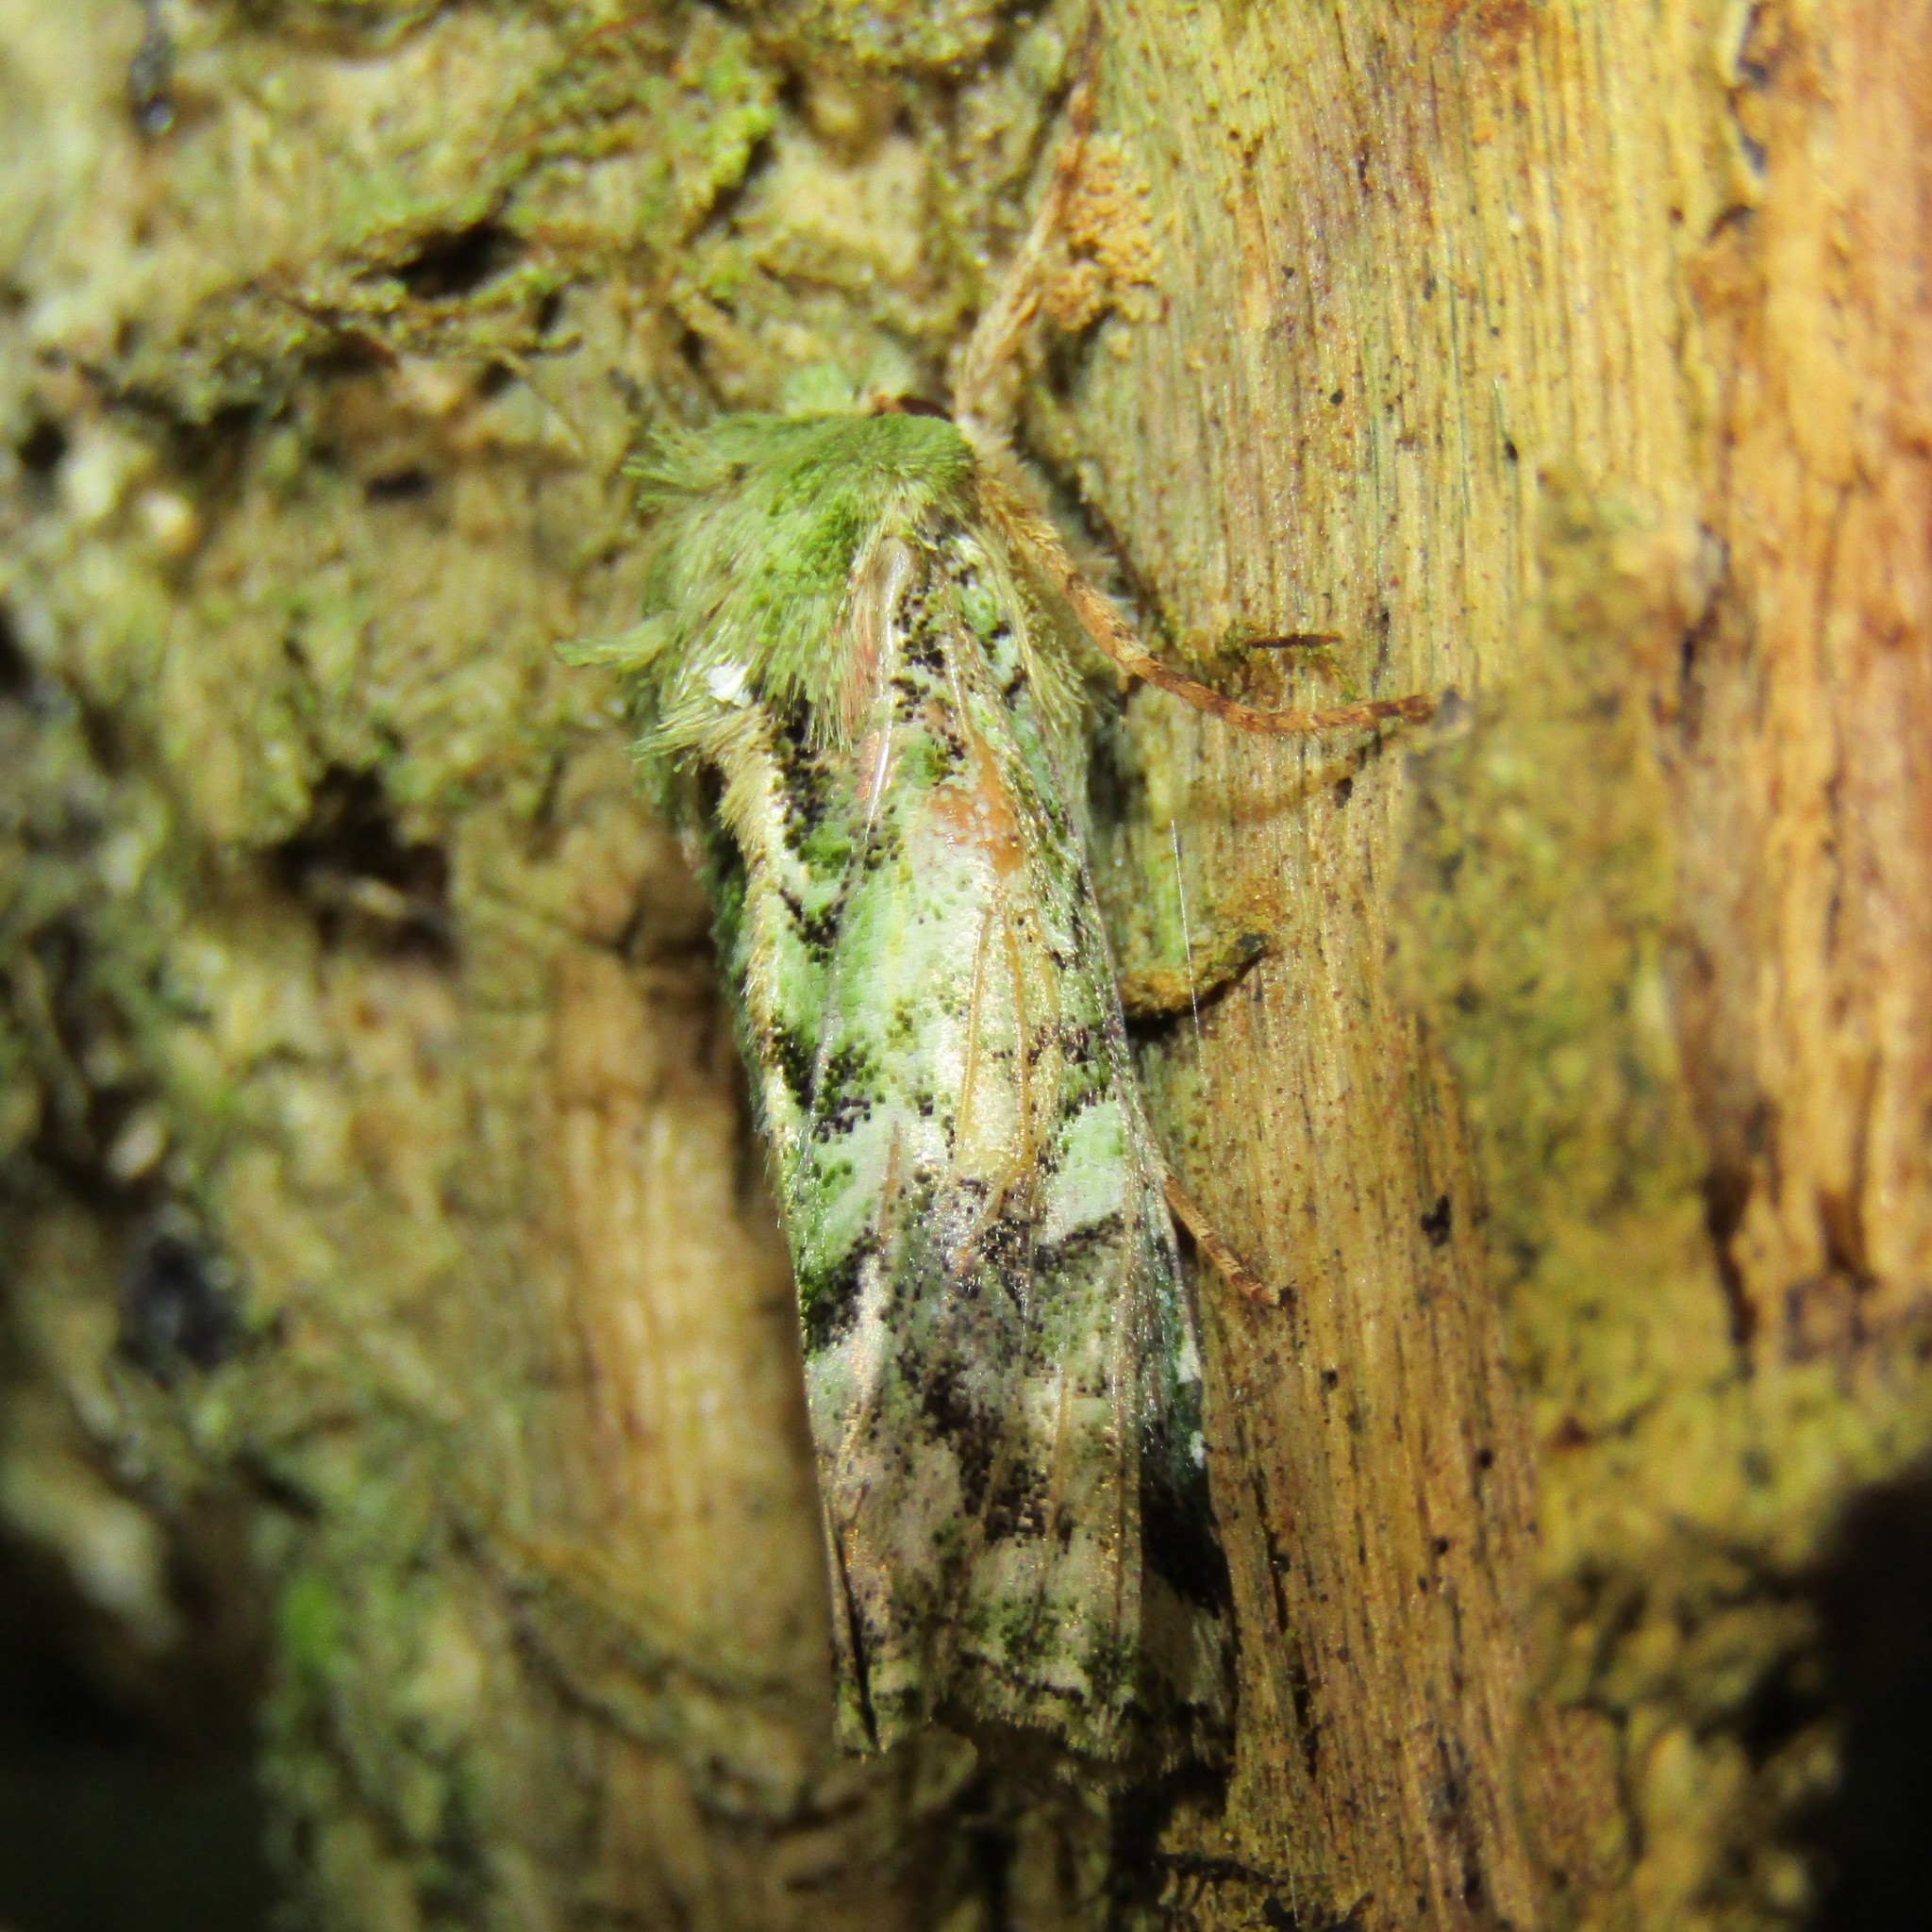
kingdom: Animalia
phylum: Arthropoda
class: Insecta
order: Lepidoptera
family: Noctuidae
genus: Feredayia
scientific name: Feredayia grammosa
